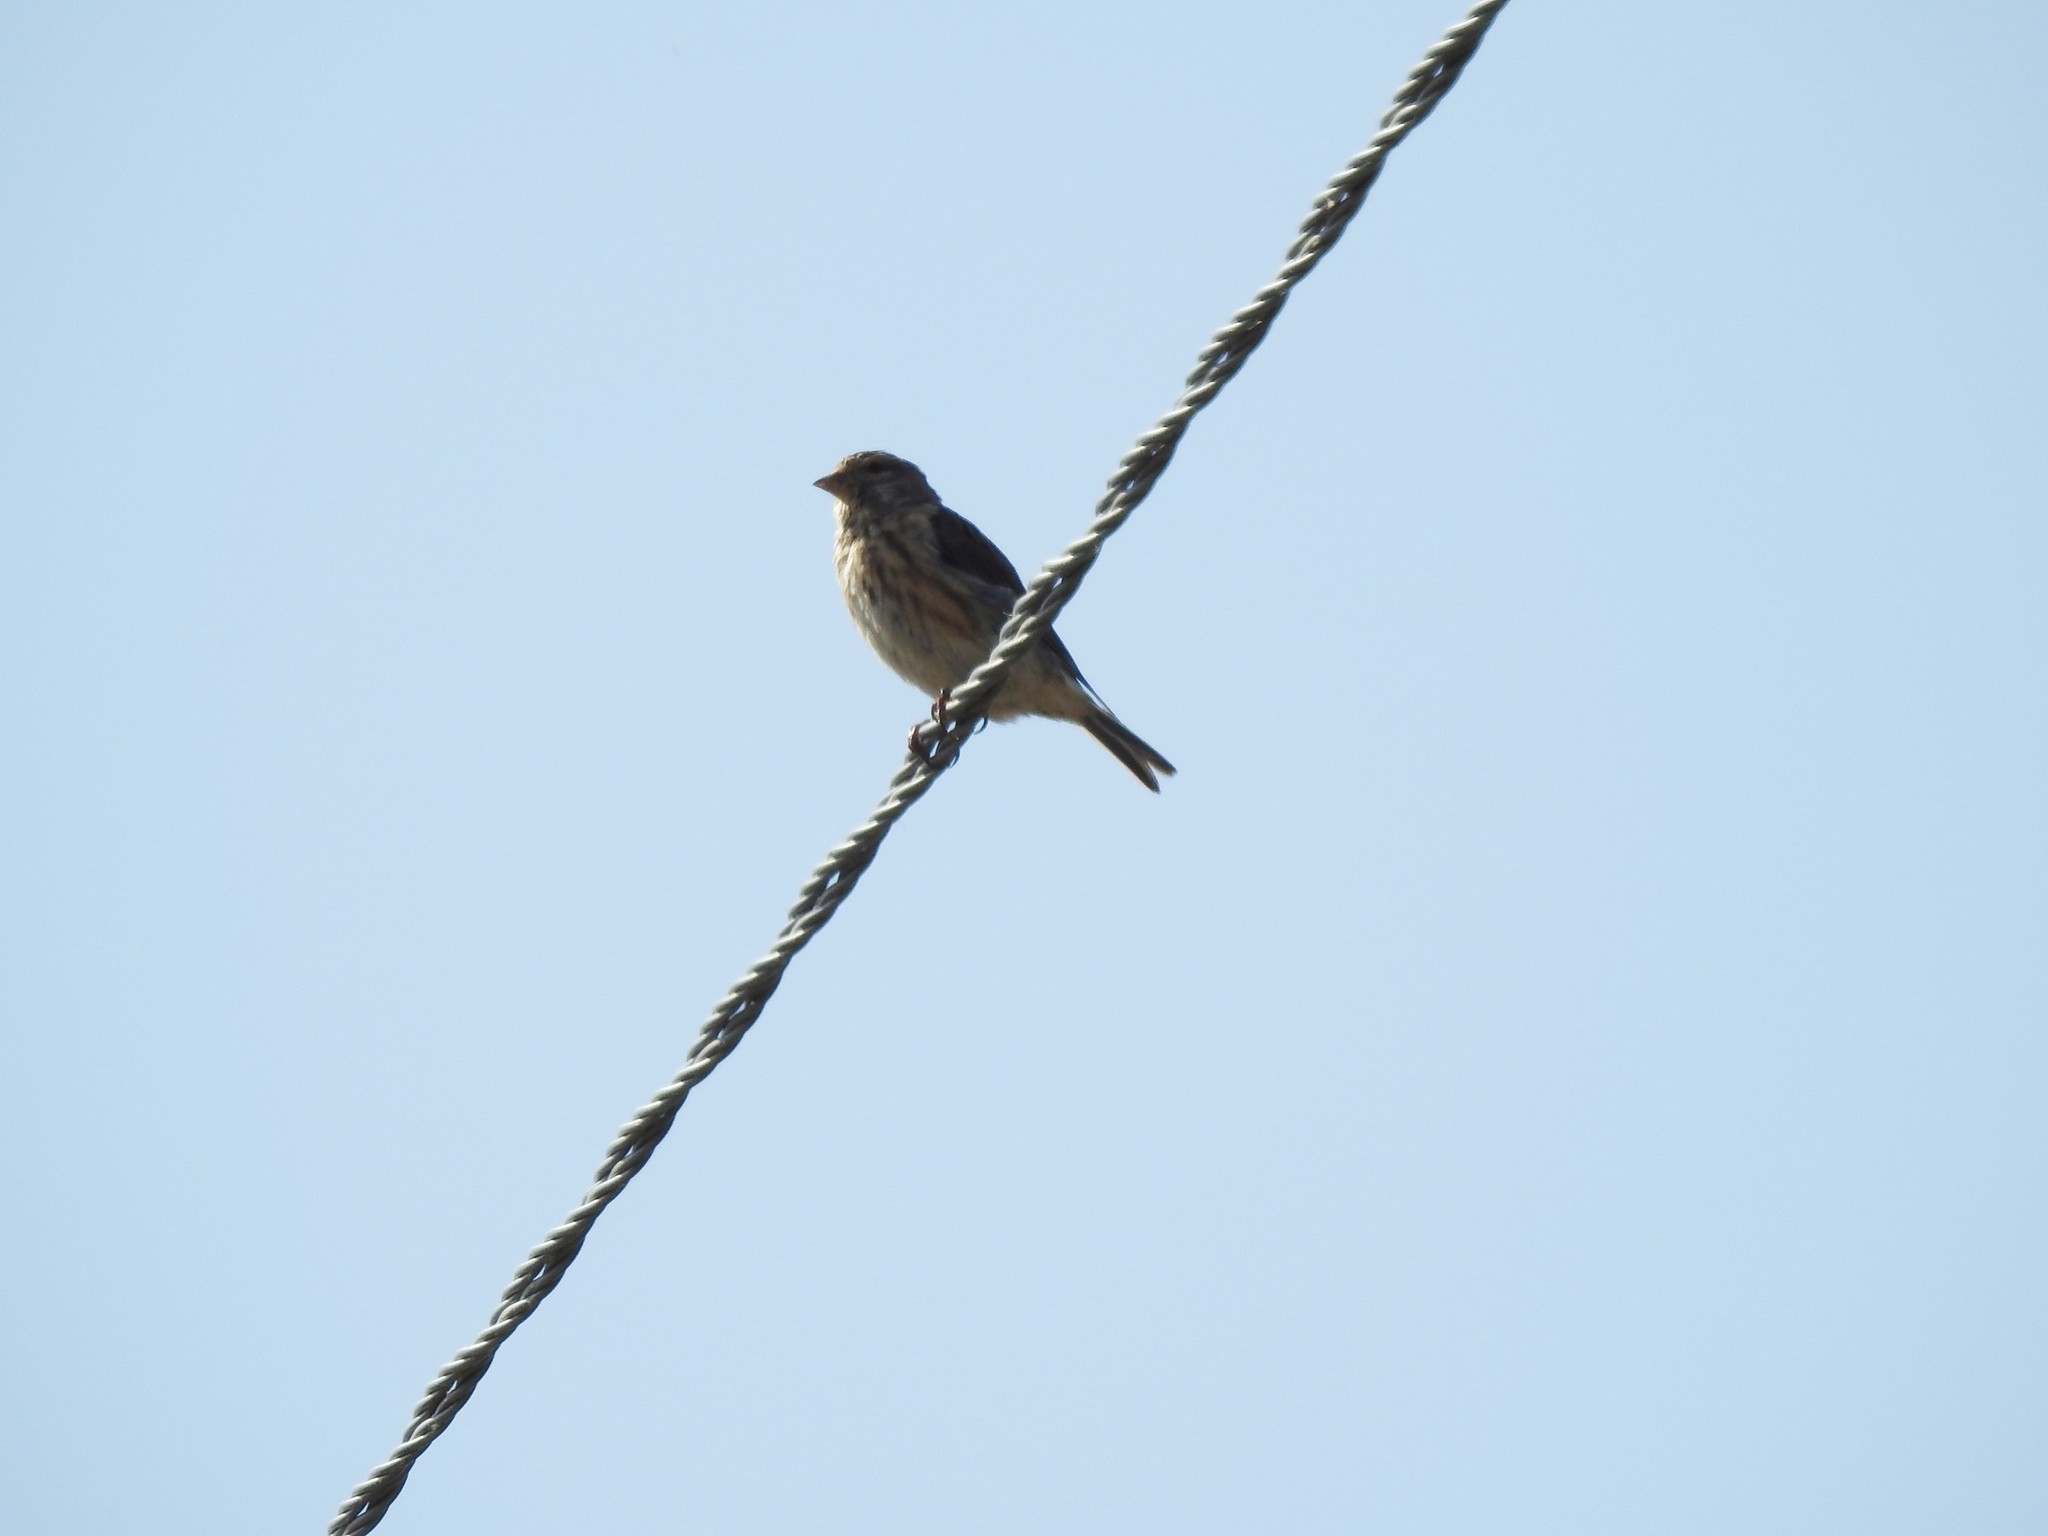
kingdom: Animalia
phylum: Chordata
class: Aves
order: Passeriformes
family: Fringillidae
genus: Linaria
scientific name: Linaria cannabina
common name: Common linnet
